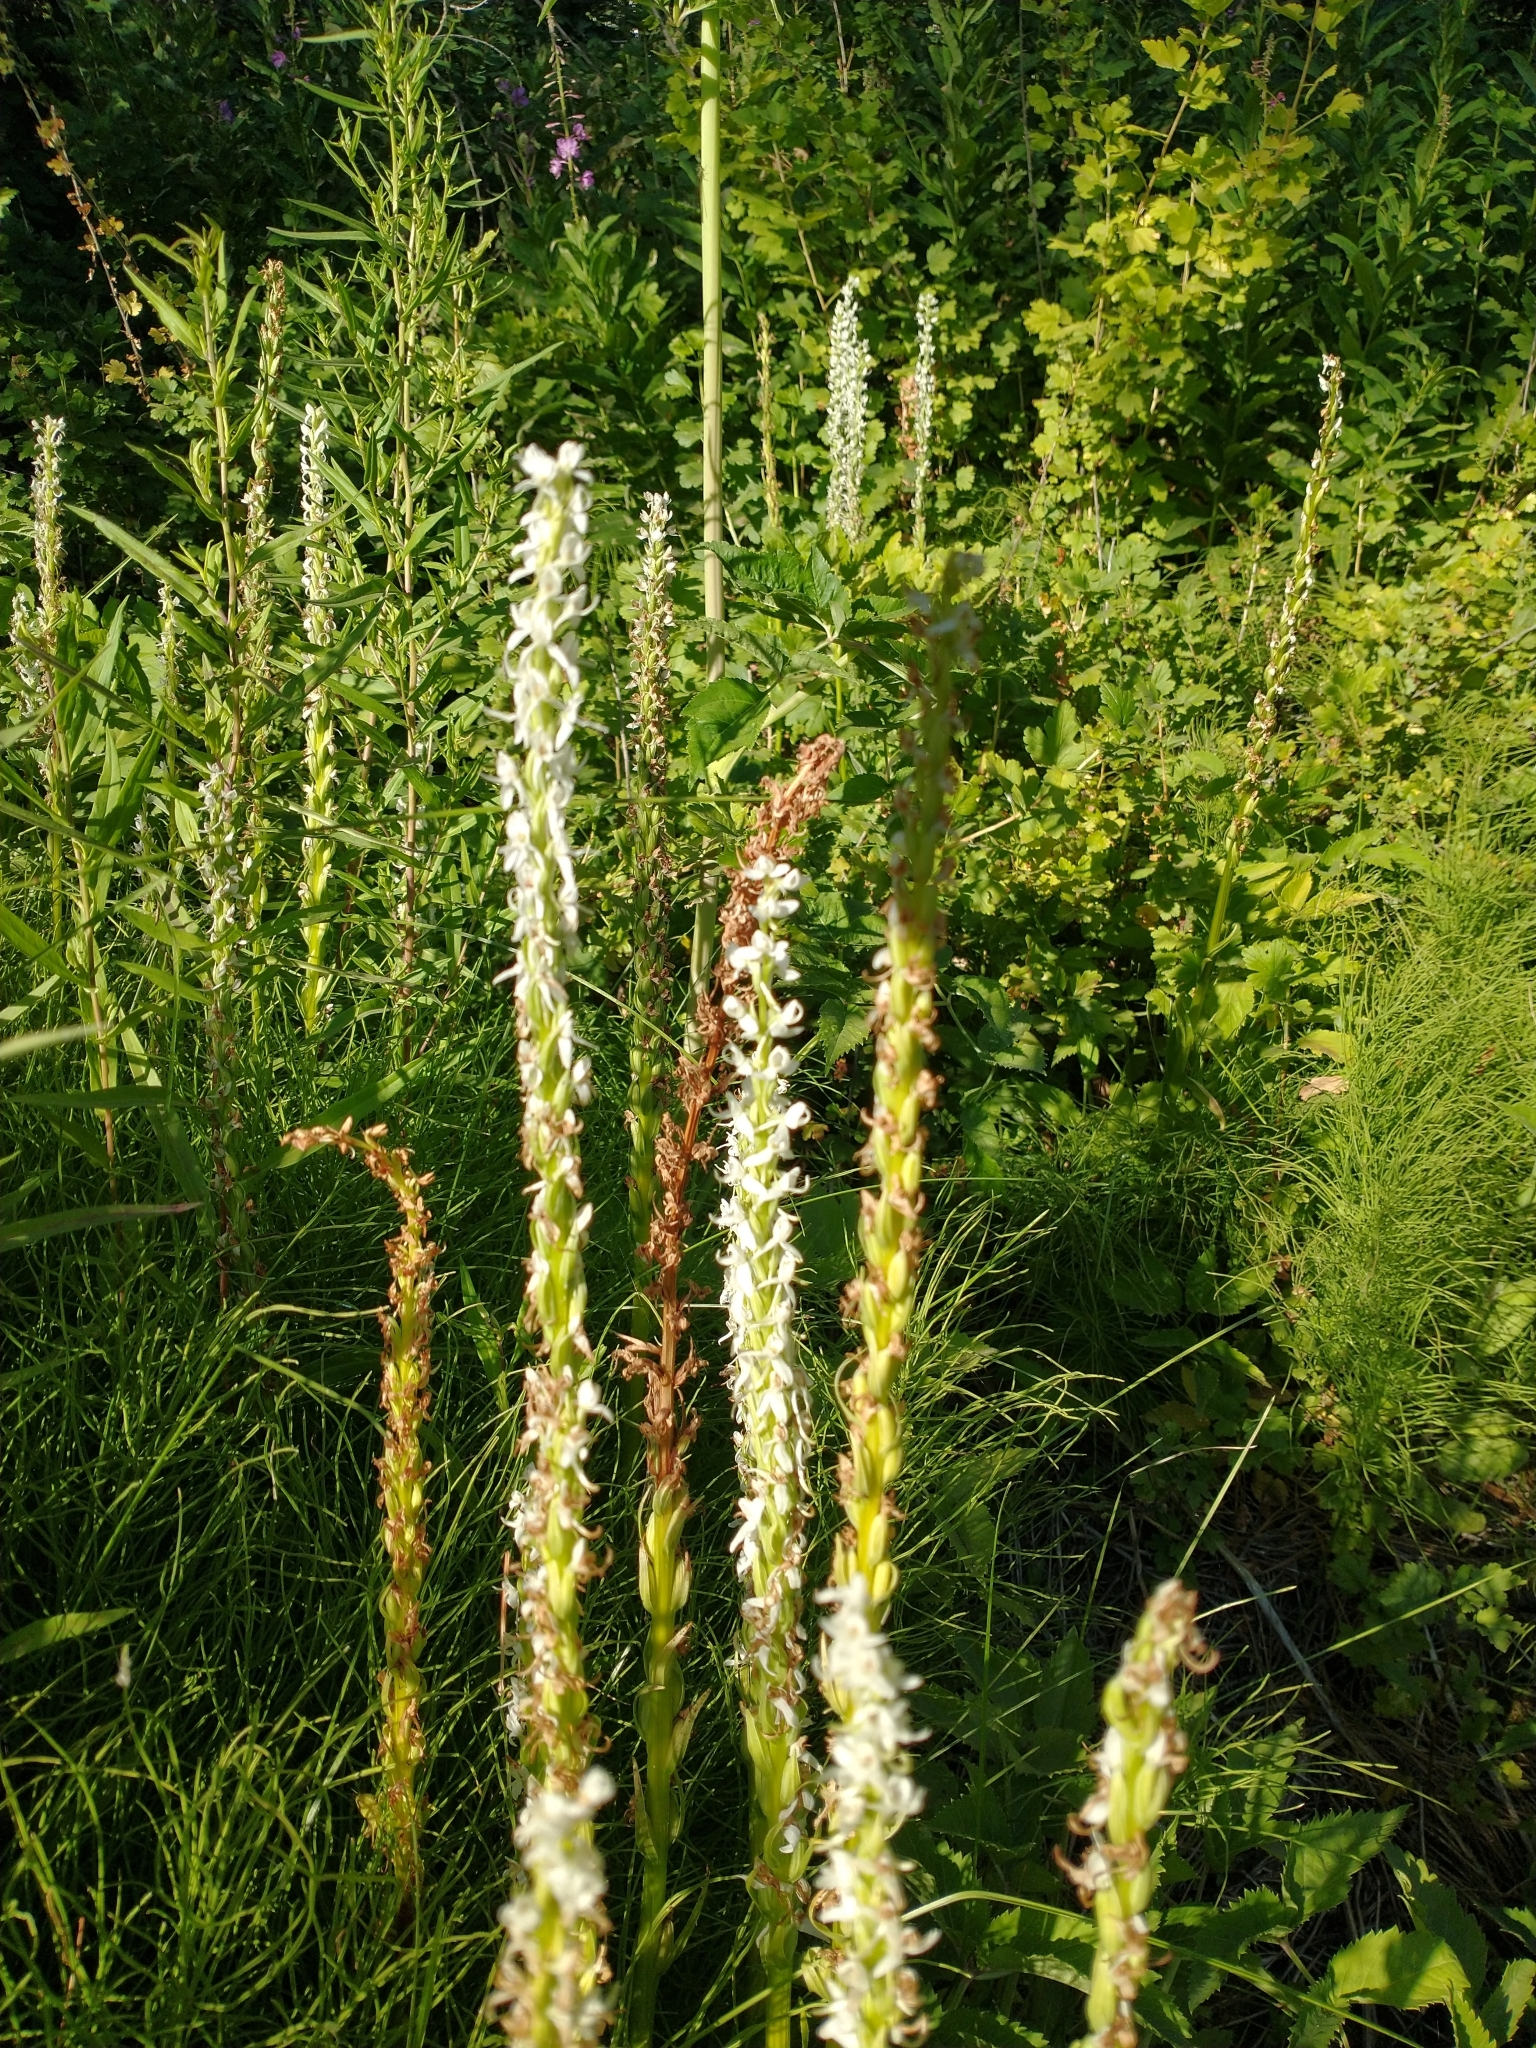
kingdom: Plantae
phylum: Tracheophyta
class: Liliopsida
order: Asparagales
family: Orchidaceae
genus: Platanthera
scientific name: Platanthera dilatata
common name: Bog candles
